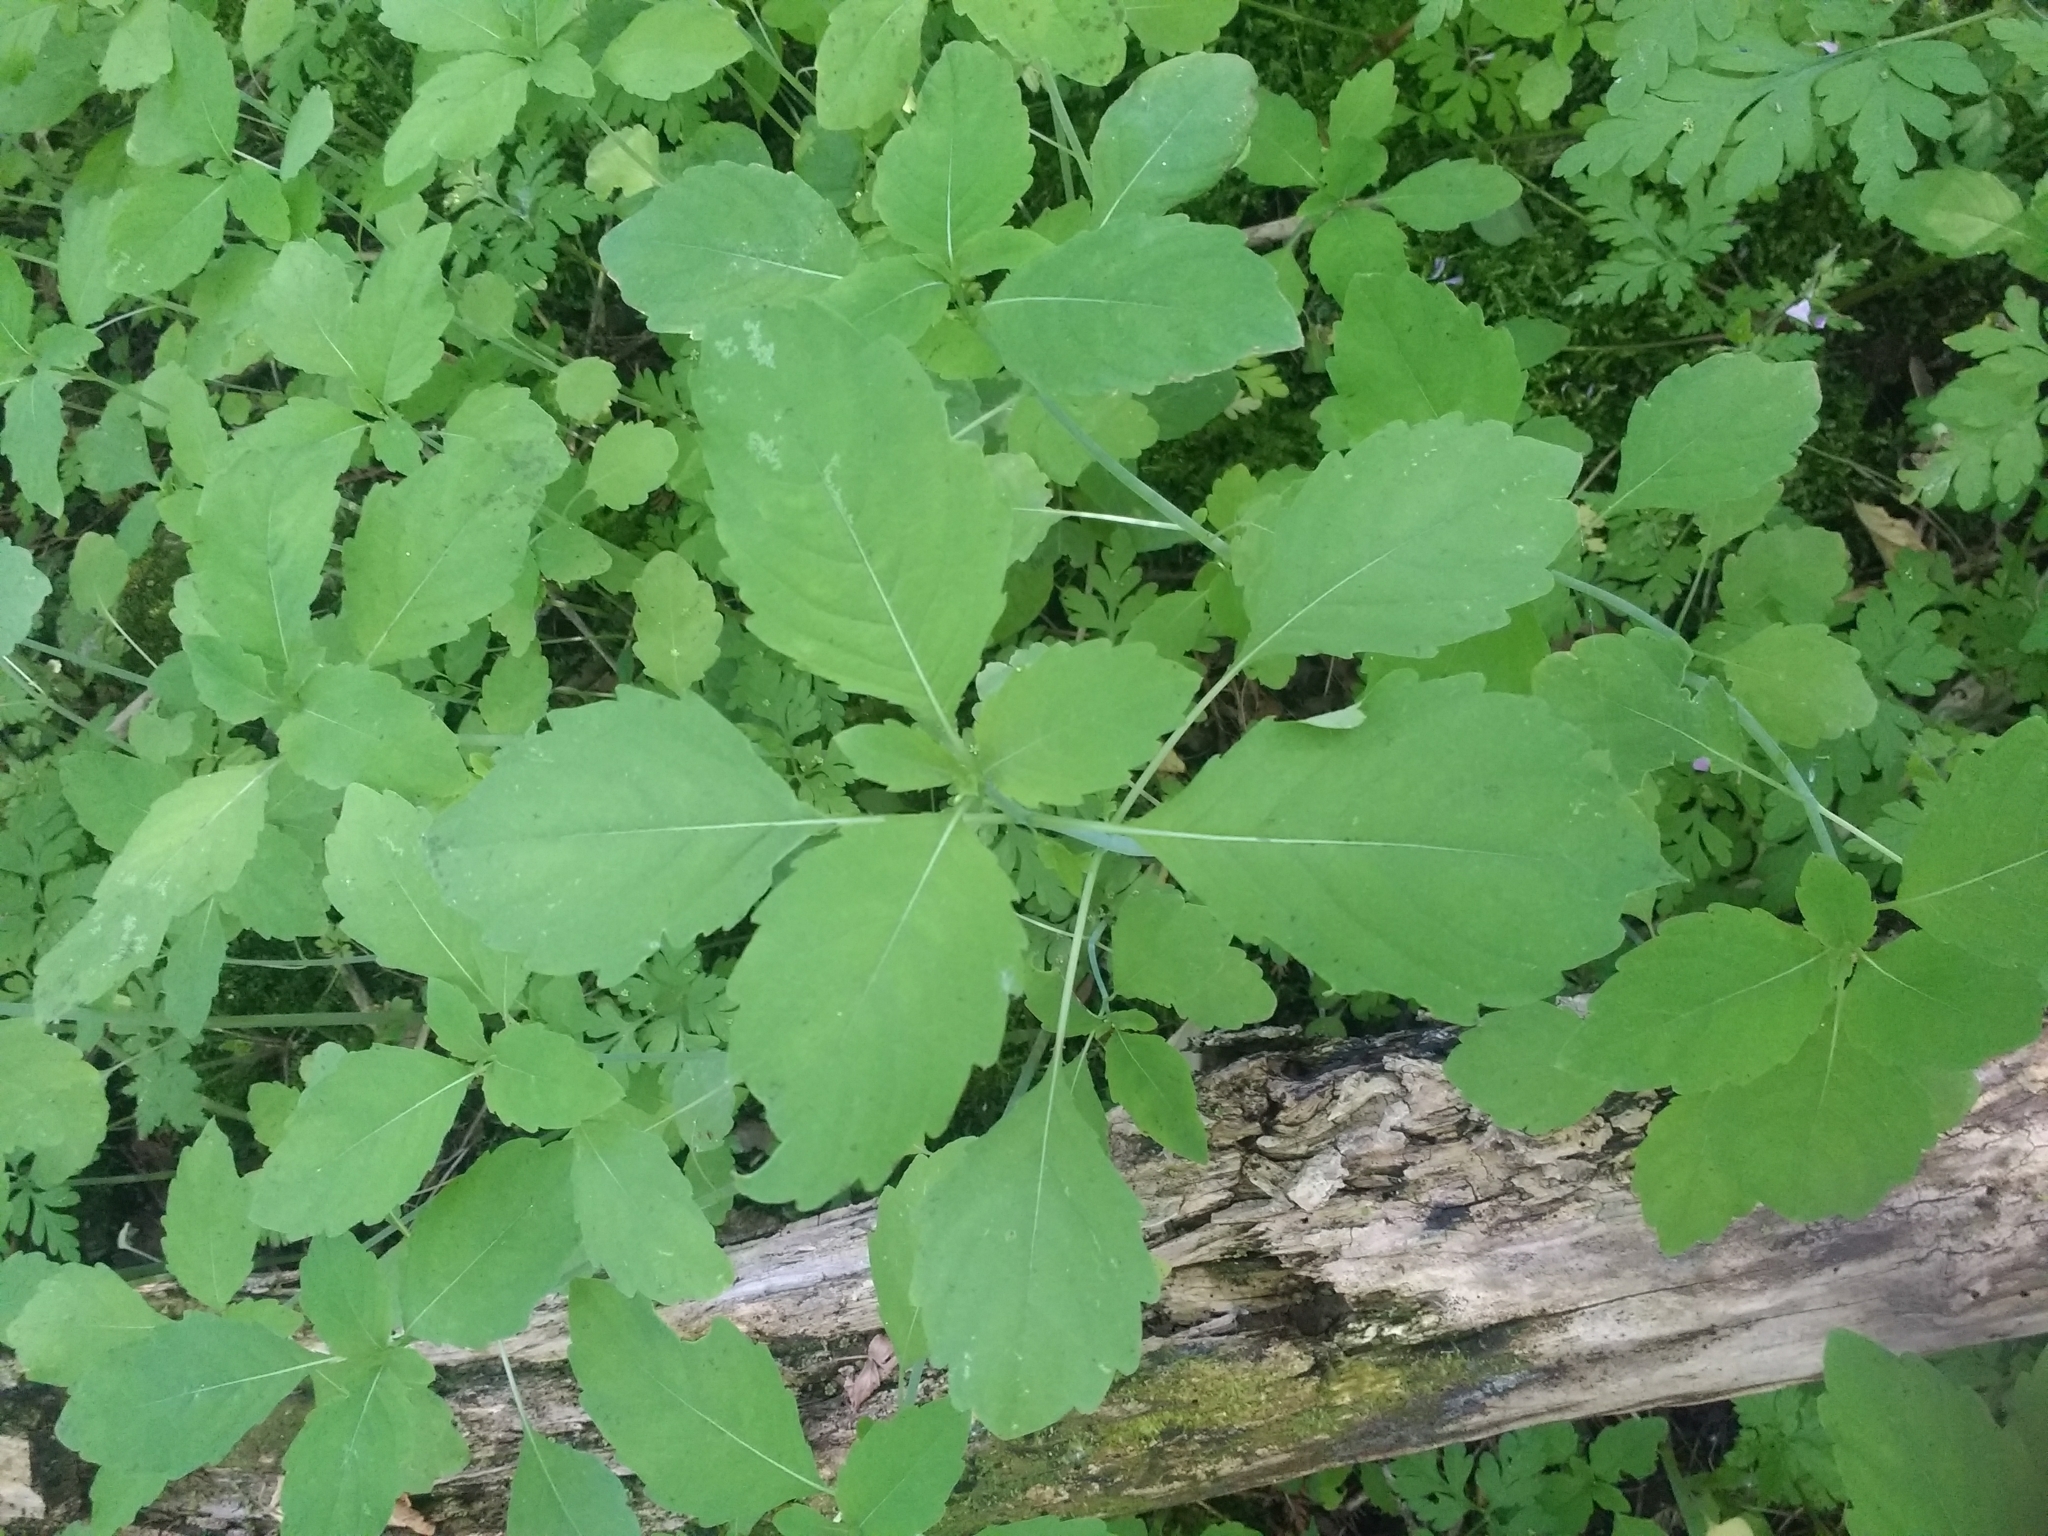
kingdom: Plantae
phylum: Tracheophyta
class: Magnoliopsida
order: Ericales
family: Balsaminaceae
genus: Impatiens
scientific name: Impatiens capensis
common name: Orange balsam
